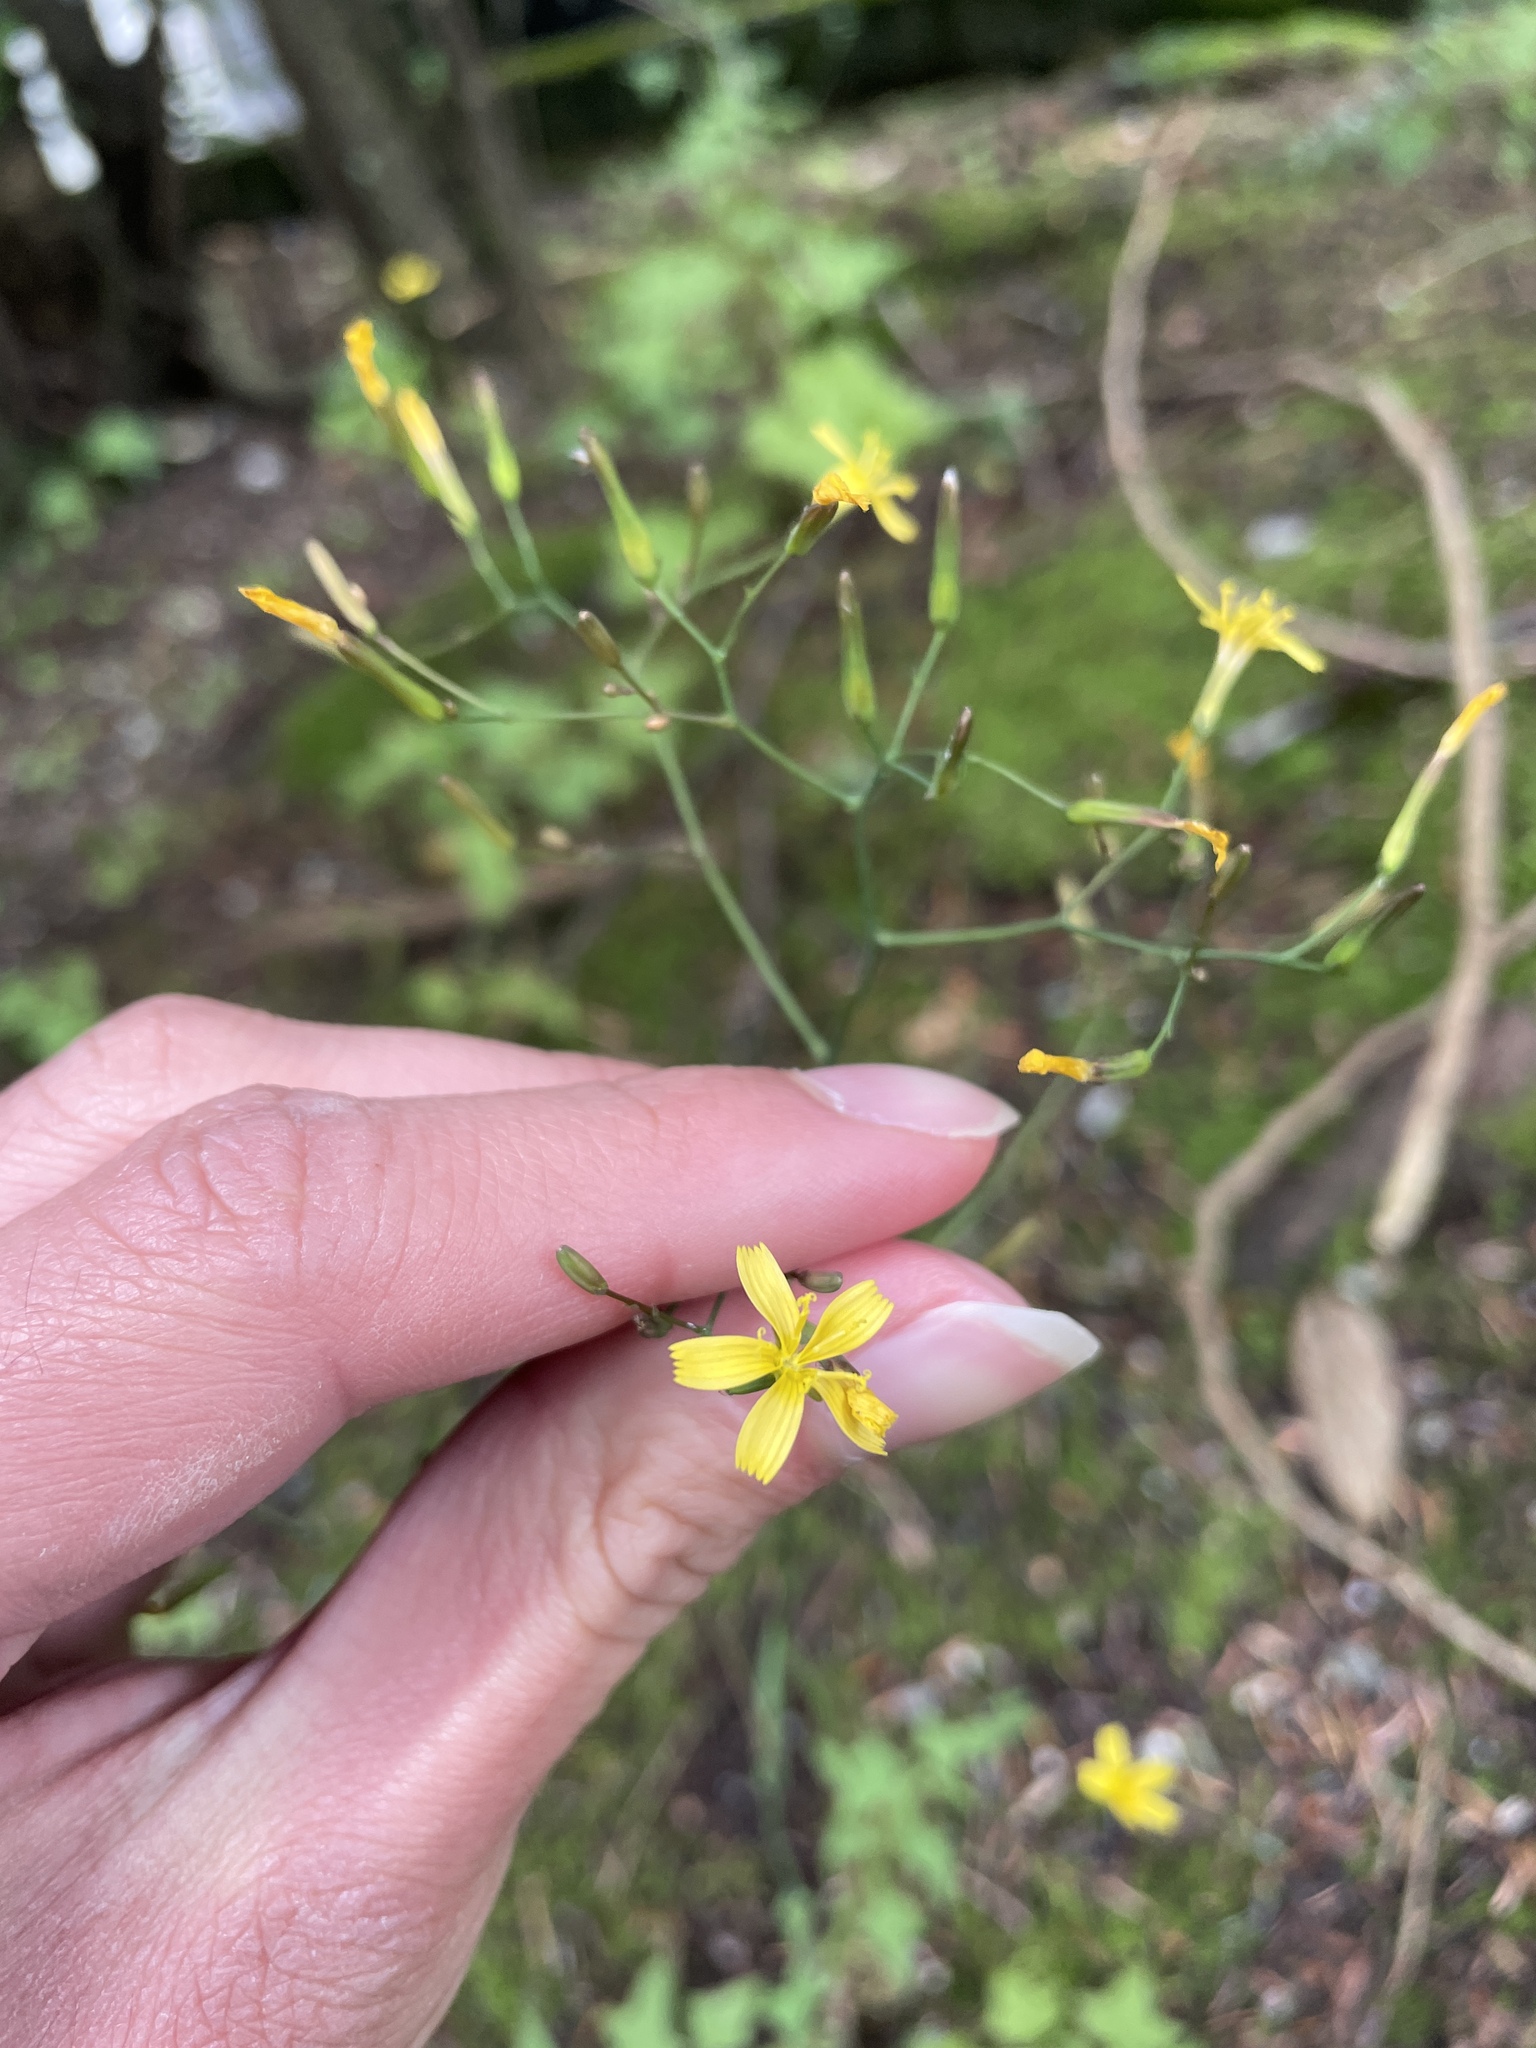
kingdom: Plantae
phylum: Tracheophyta
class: Magnoliopsida
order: Asterales
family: Asteraceae
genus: Mycelis
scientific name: Mycelis muralis
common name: Wall lettuce
